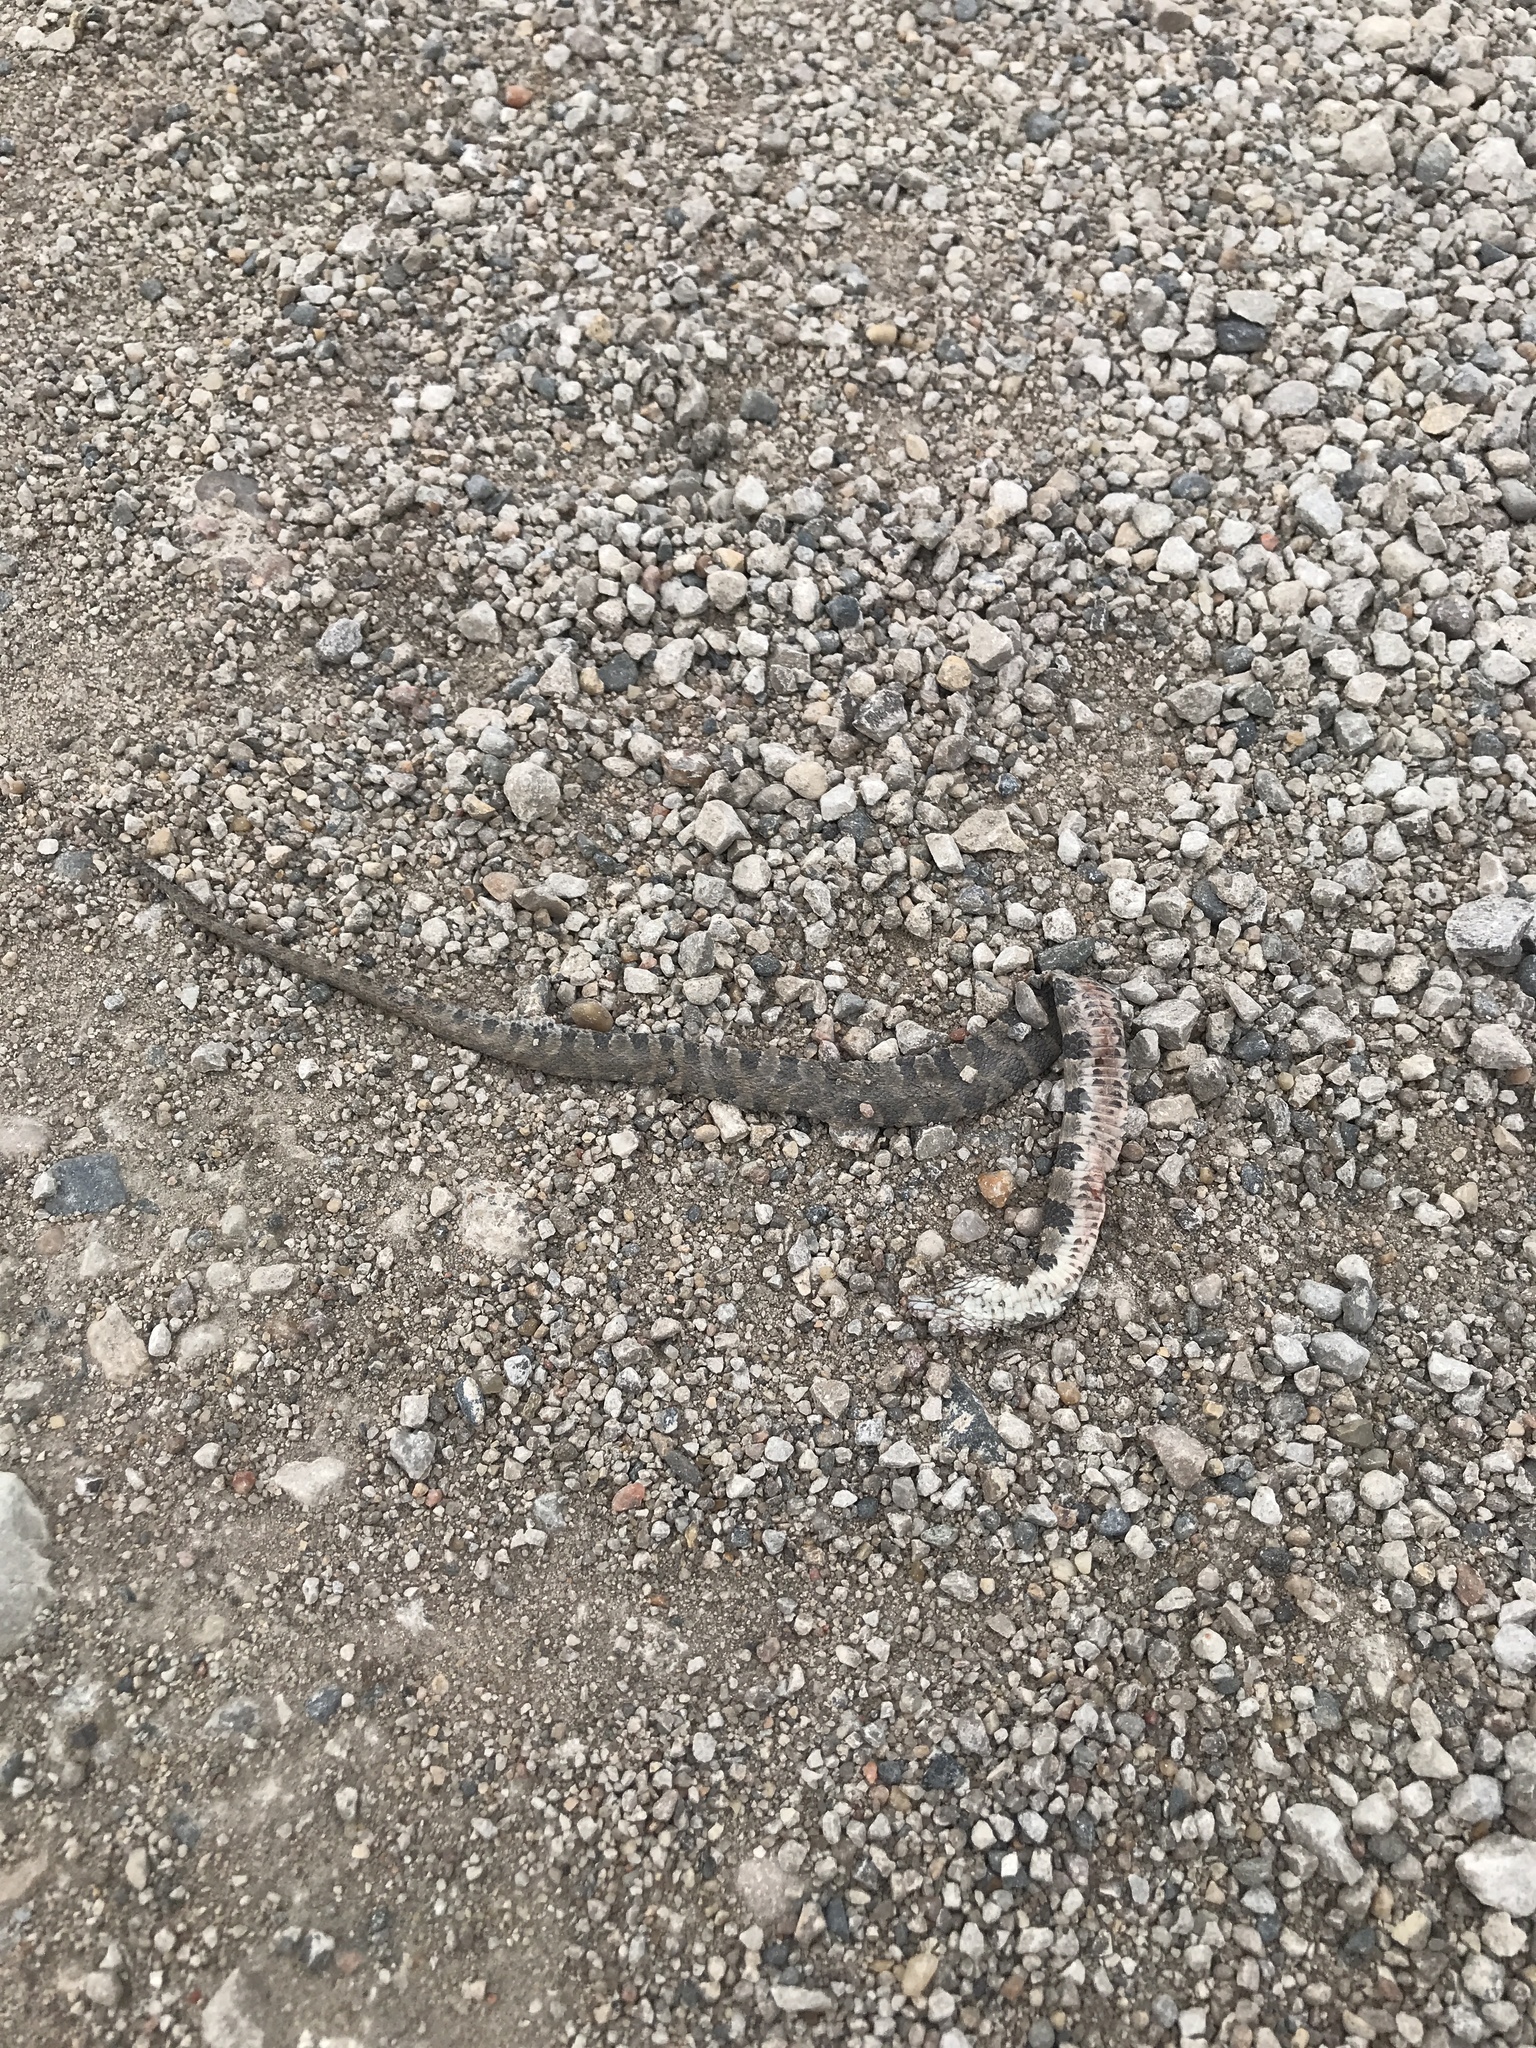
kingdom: Animalia
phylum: Chordata
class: Squamata
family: Colubridae
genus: Nerodia
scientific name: Nerodia sipedon
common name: Northern water snake
